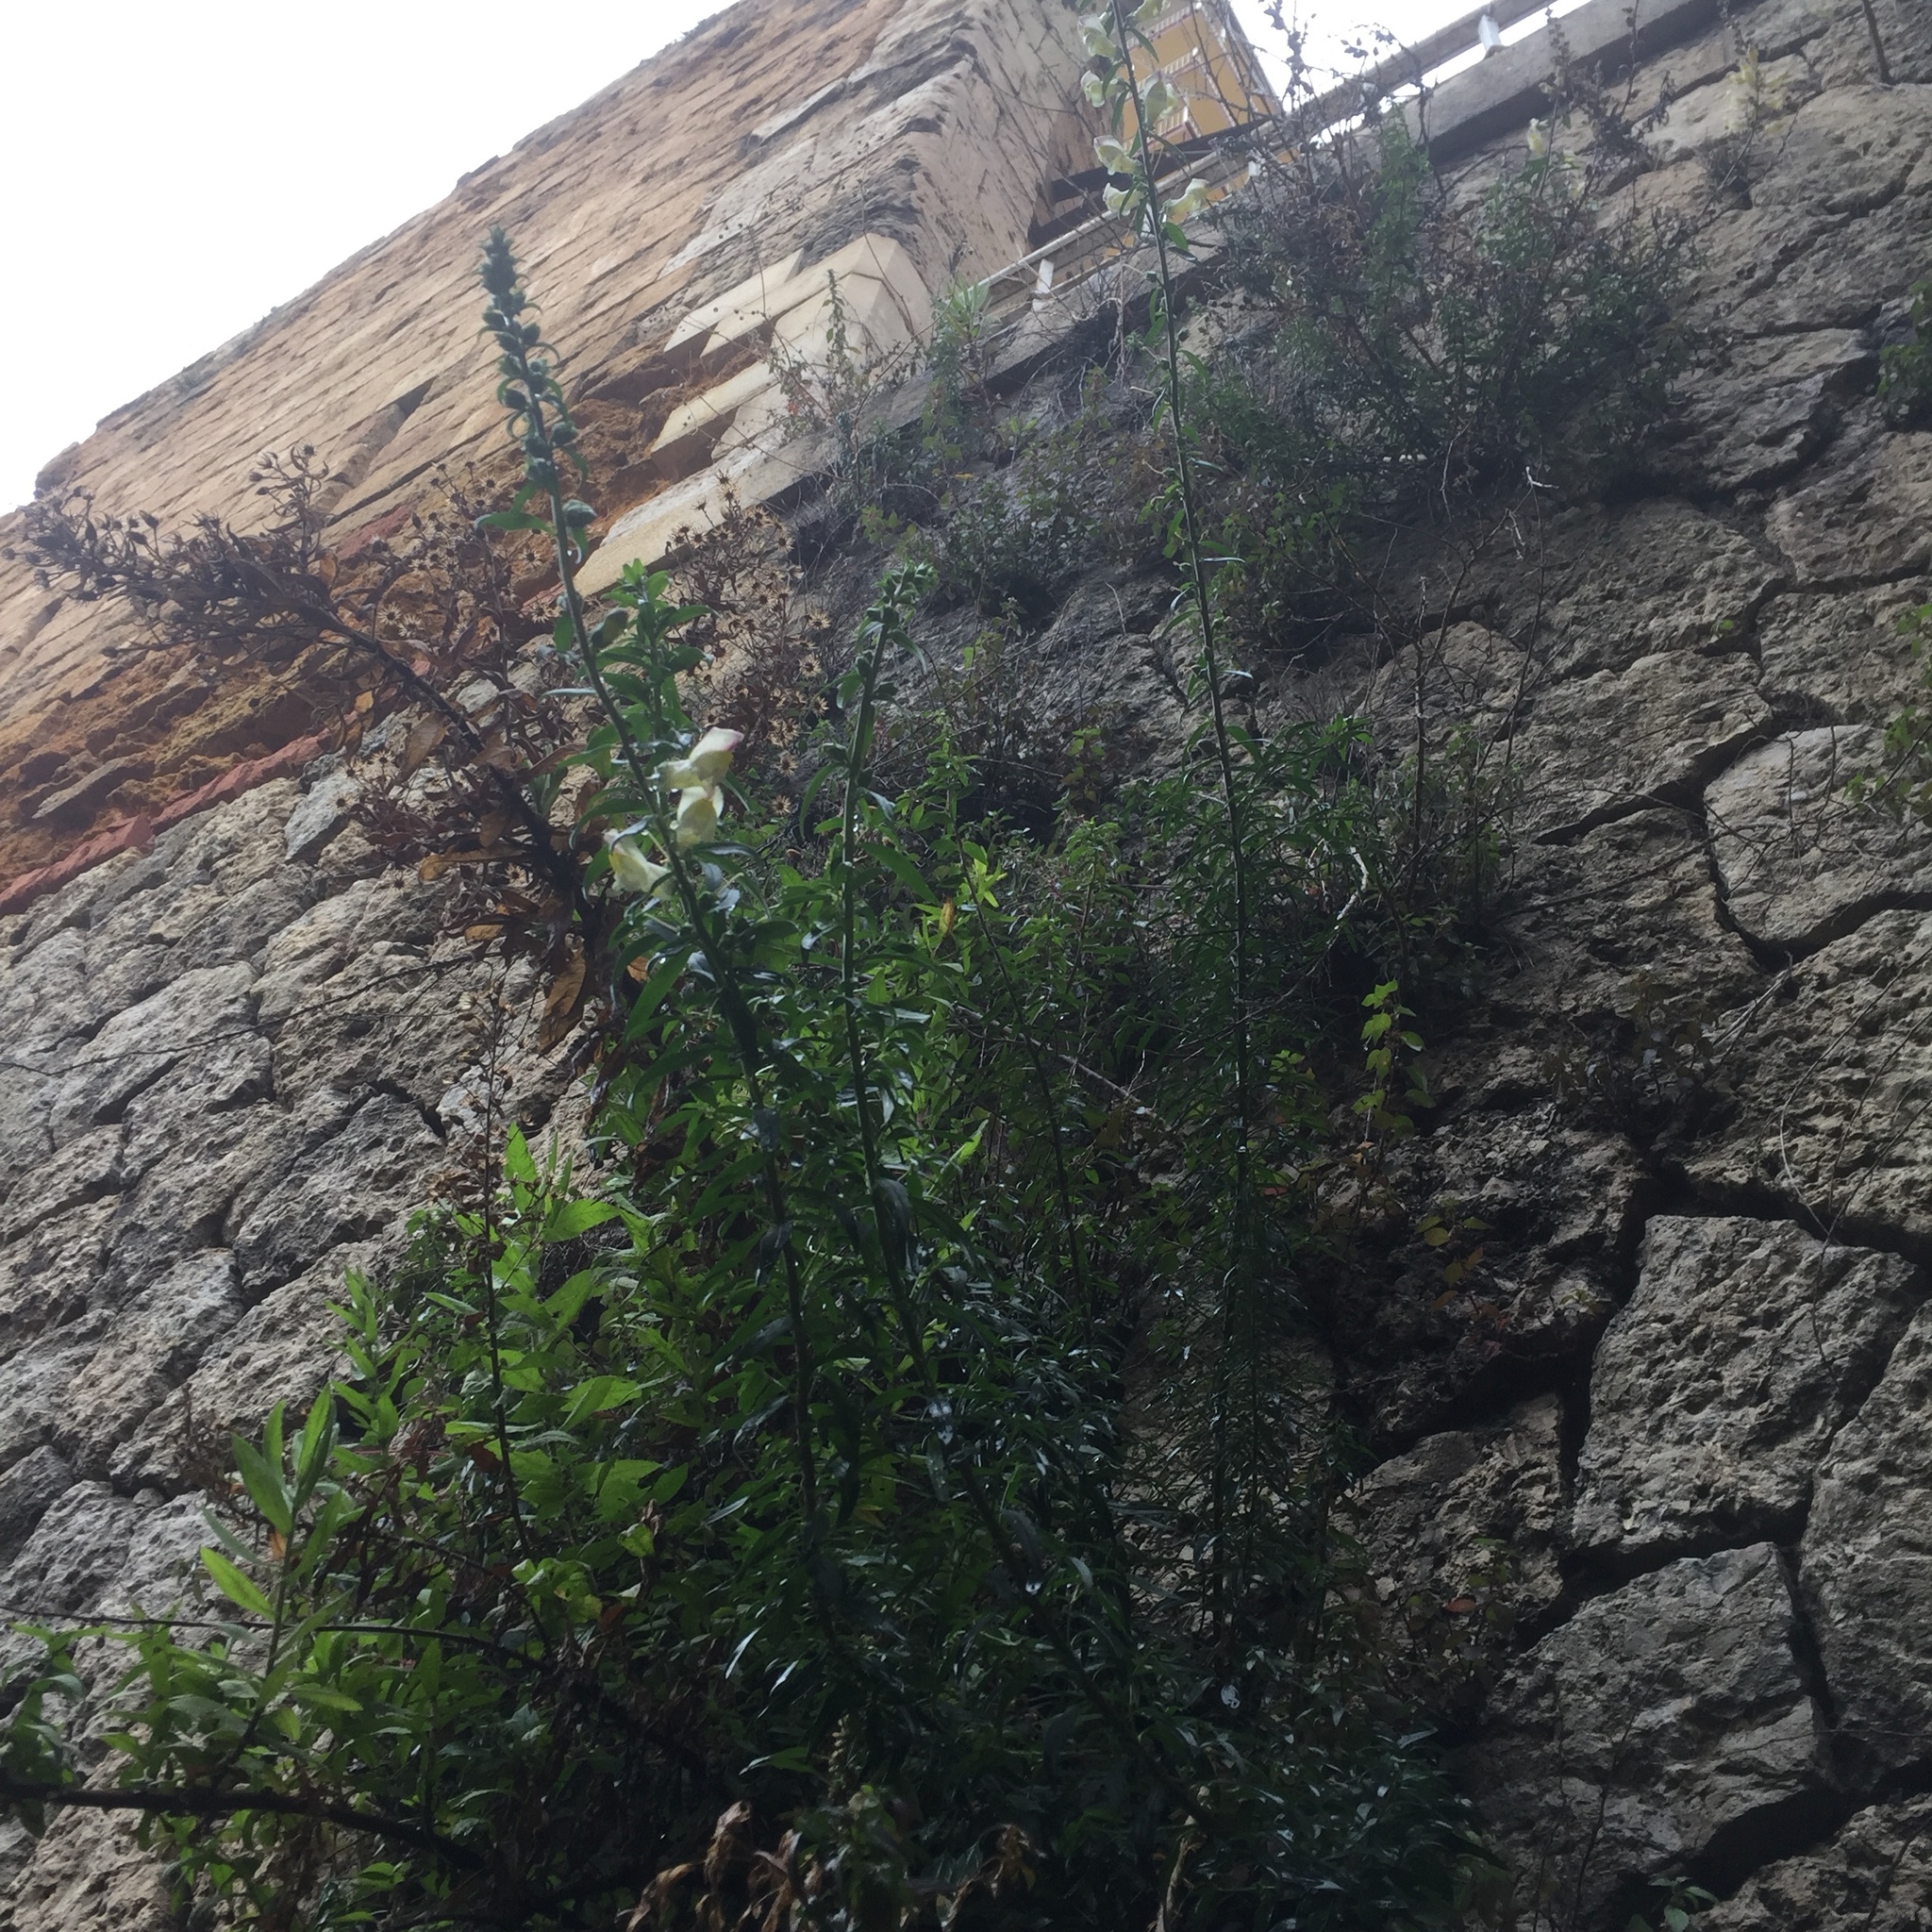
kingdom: Plantae
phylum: Tracheophyta
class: Magnoliopsida
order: Lamiales
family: Plantaginaceae
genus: Antirrhinum
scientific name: Antirrhinum majus
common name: Snapdragon
